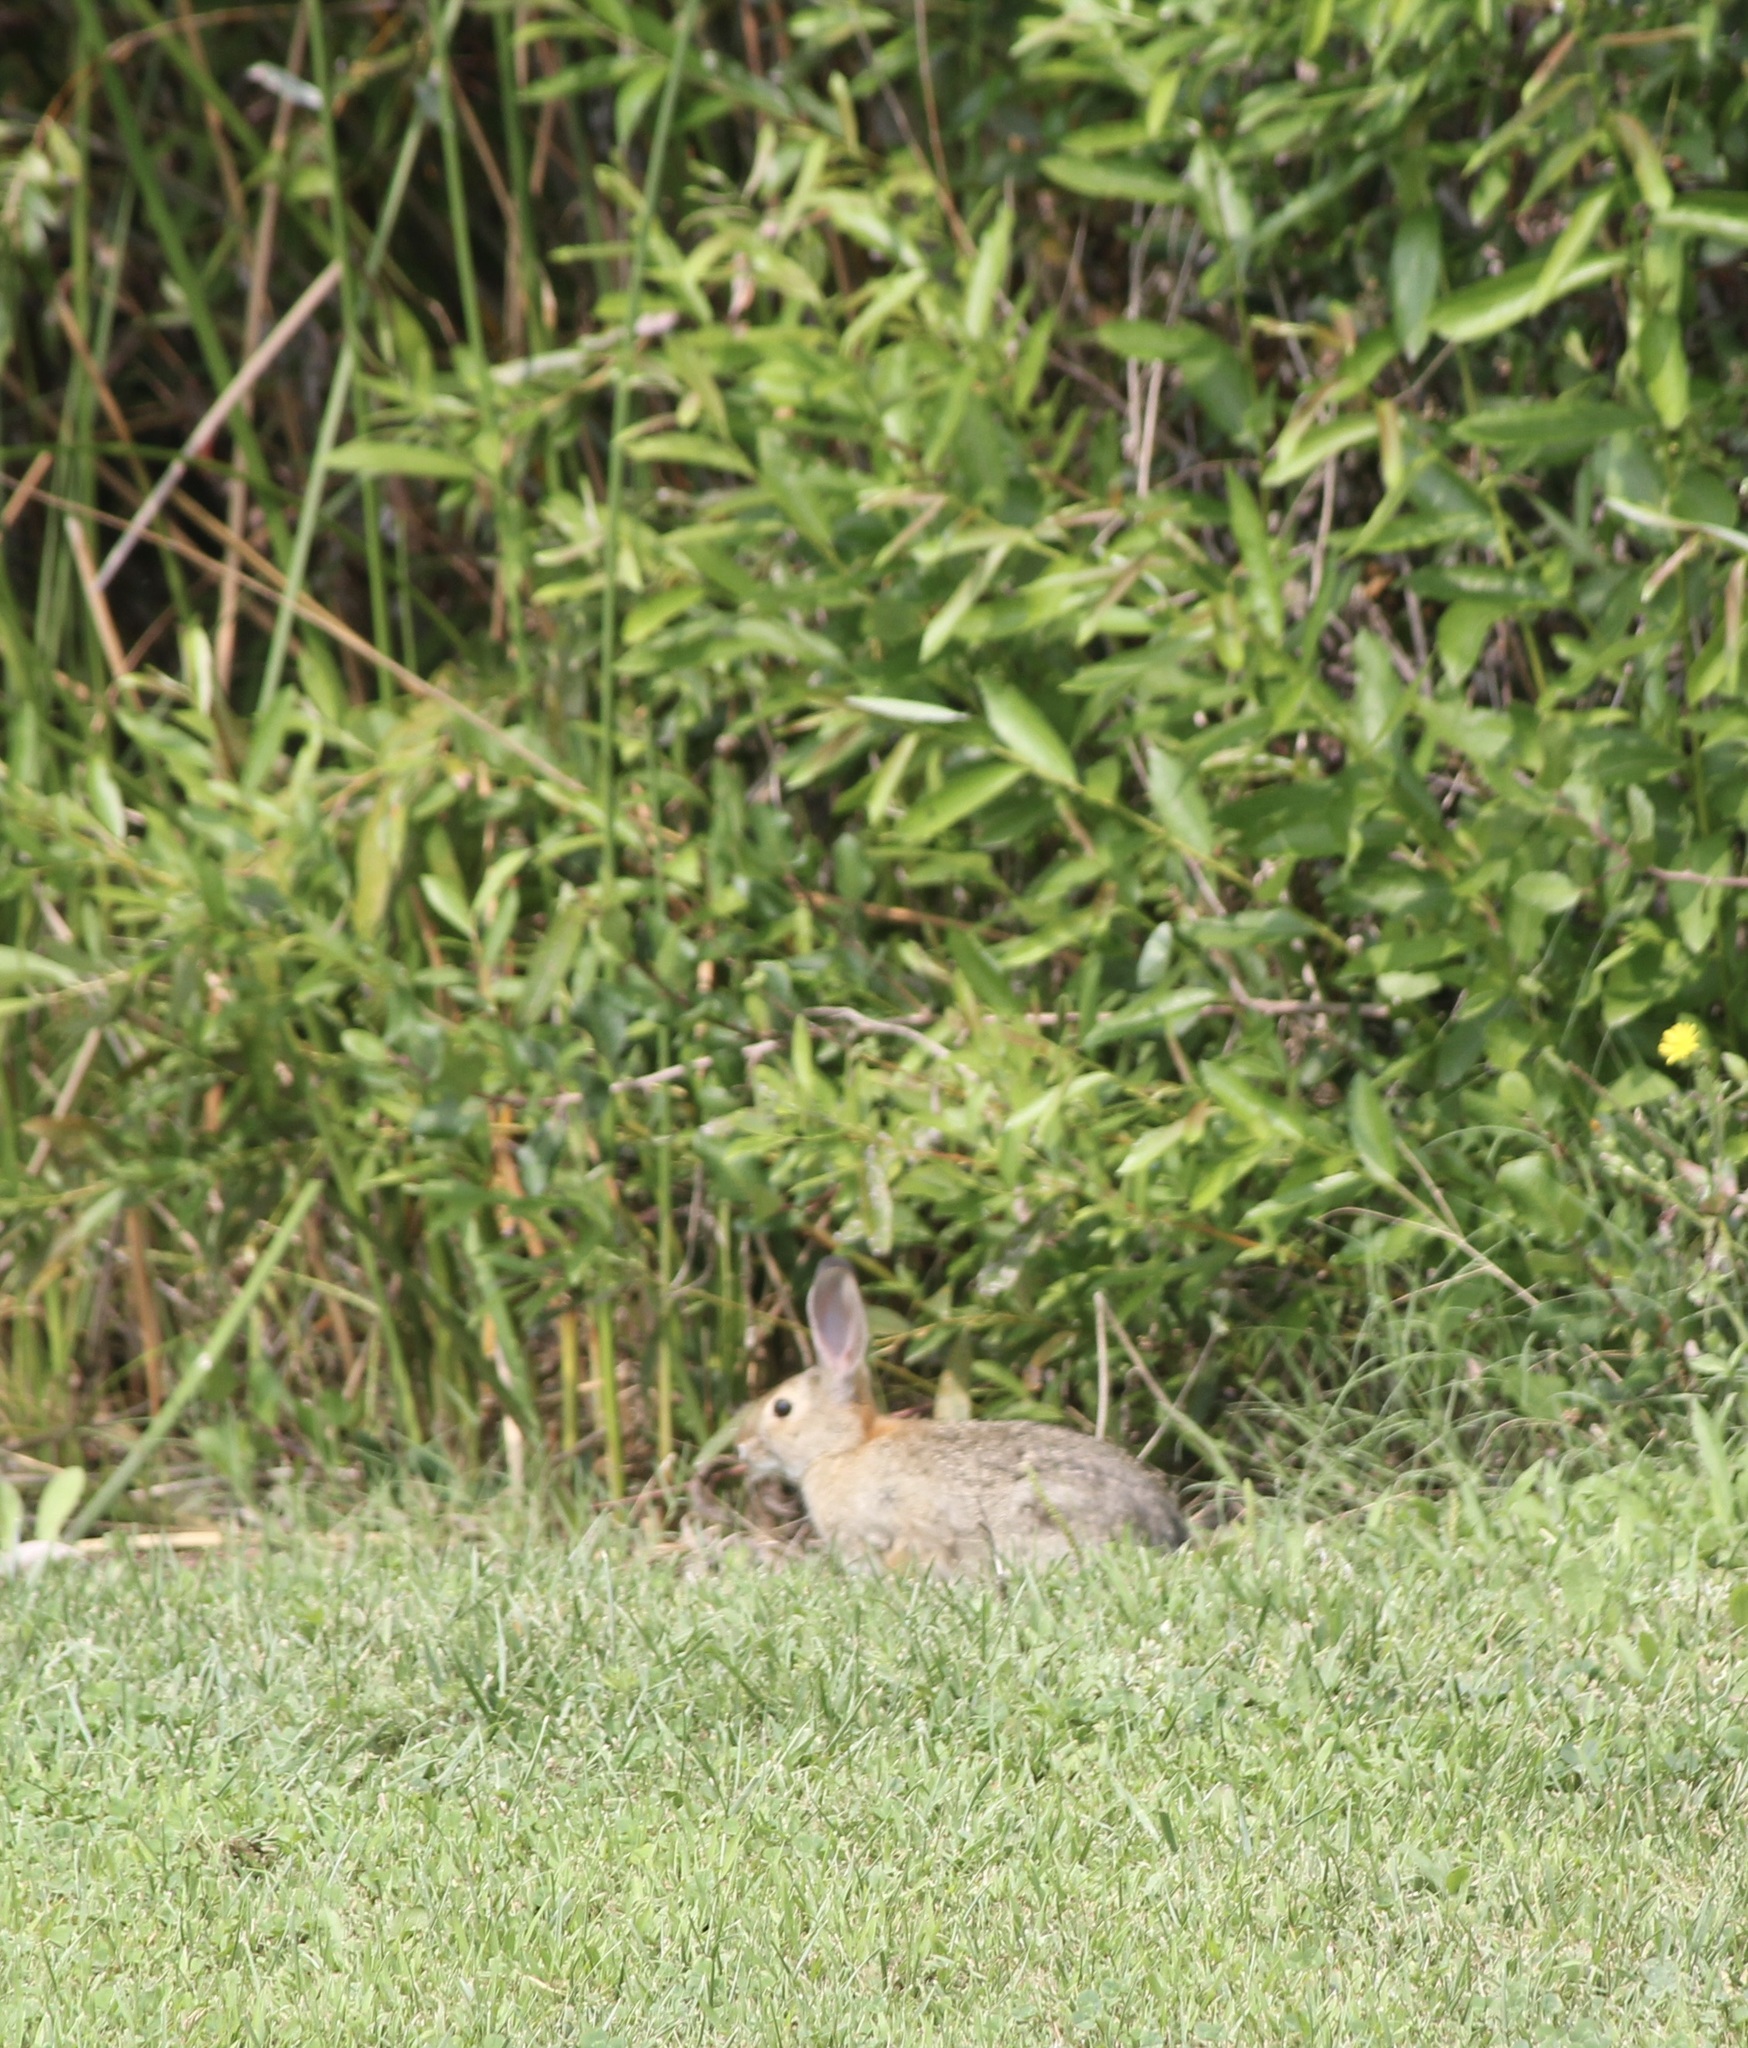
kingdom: Animalia
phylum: Chordata
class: Mammalia
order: Lagomorpha
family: Leporidae
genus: Sylvilagus
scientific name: Sylvilagus audubonii
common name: Desert cottontail
